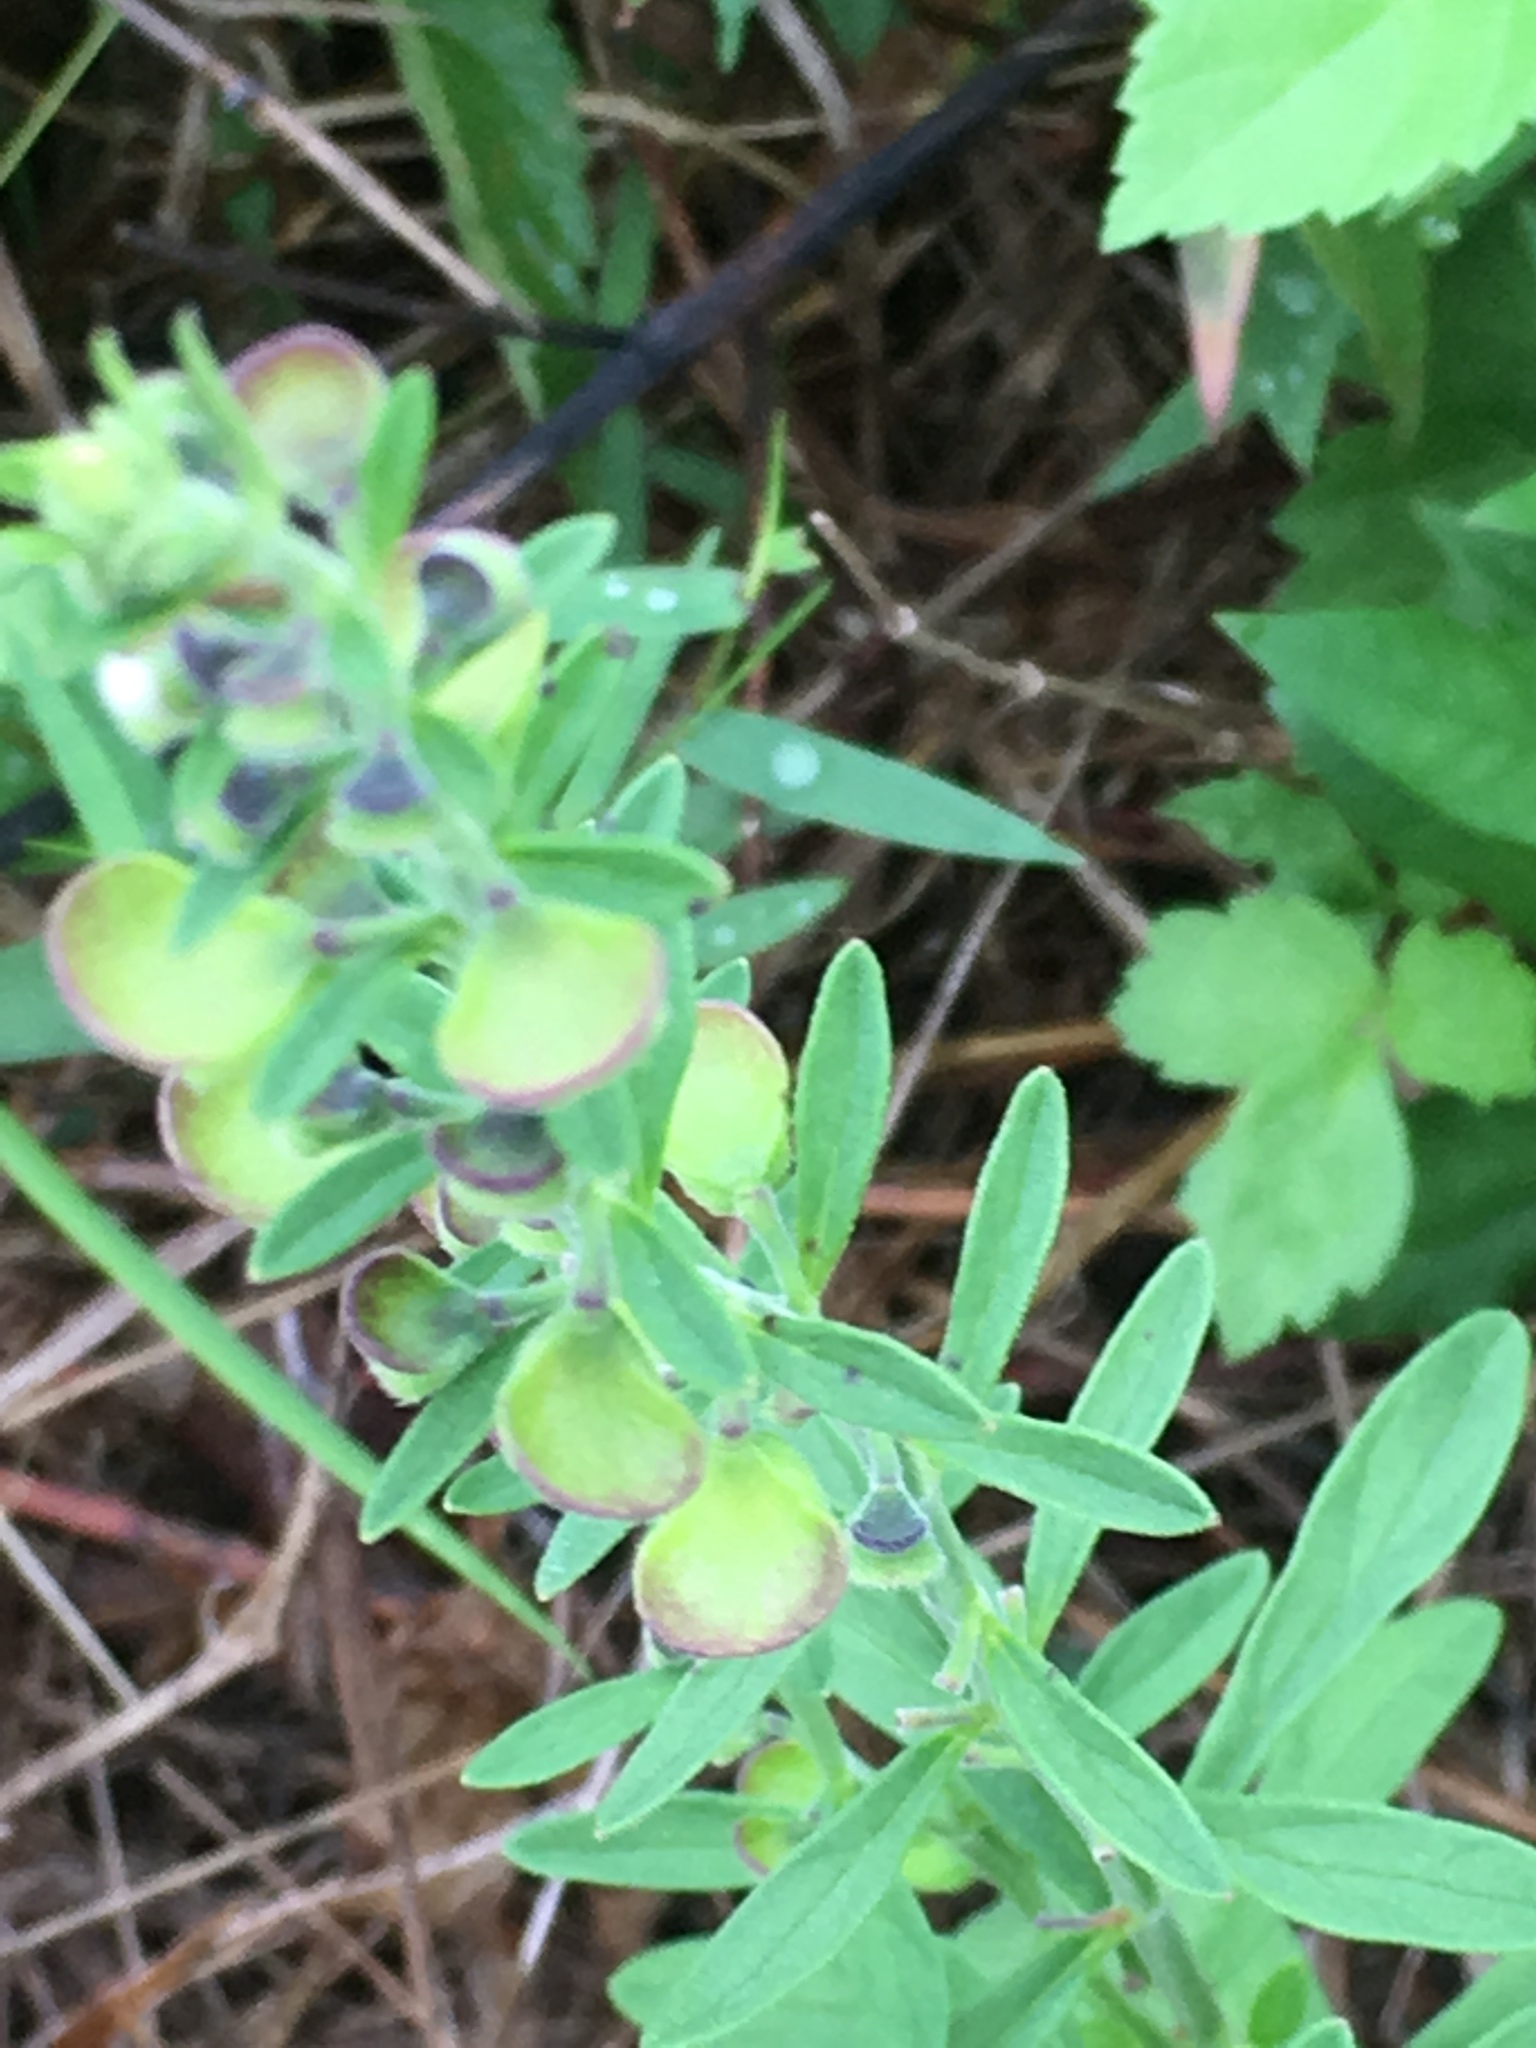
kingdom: Plantae
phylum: Tracheophyta
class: Magnoliopsida
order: Lamiales
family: Lamiaceae
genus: Scutellaria
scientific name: Scutellaria integrifolia
